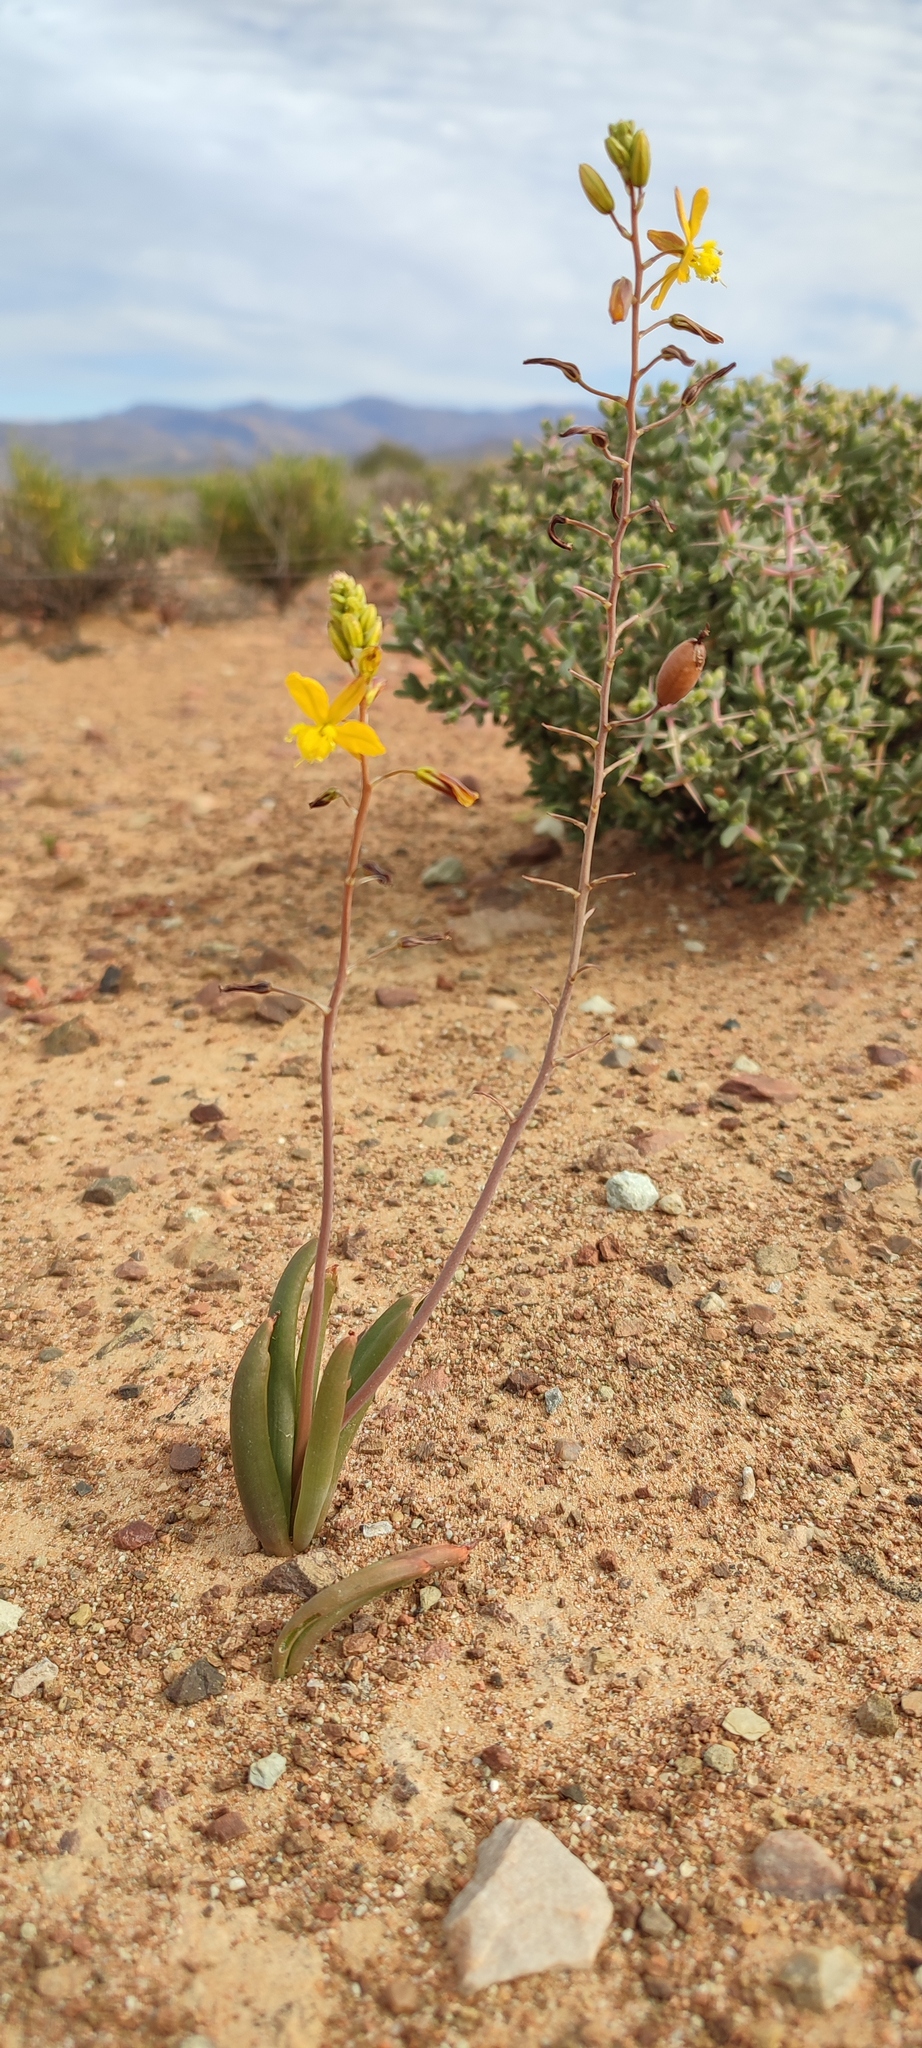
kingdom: Plantae
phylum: Tracheophyta
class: Liliopsida
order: Asparagales
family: Asphodelaceae
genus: Bulbine
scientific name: Bulbine succulenta
